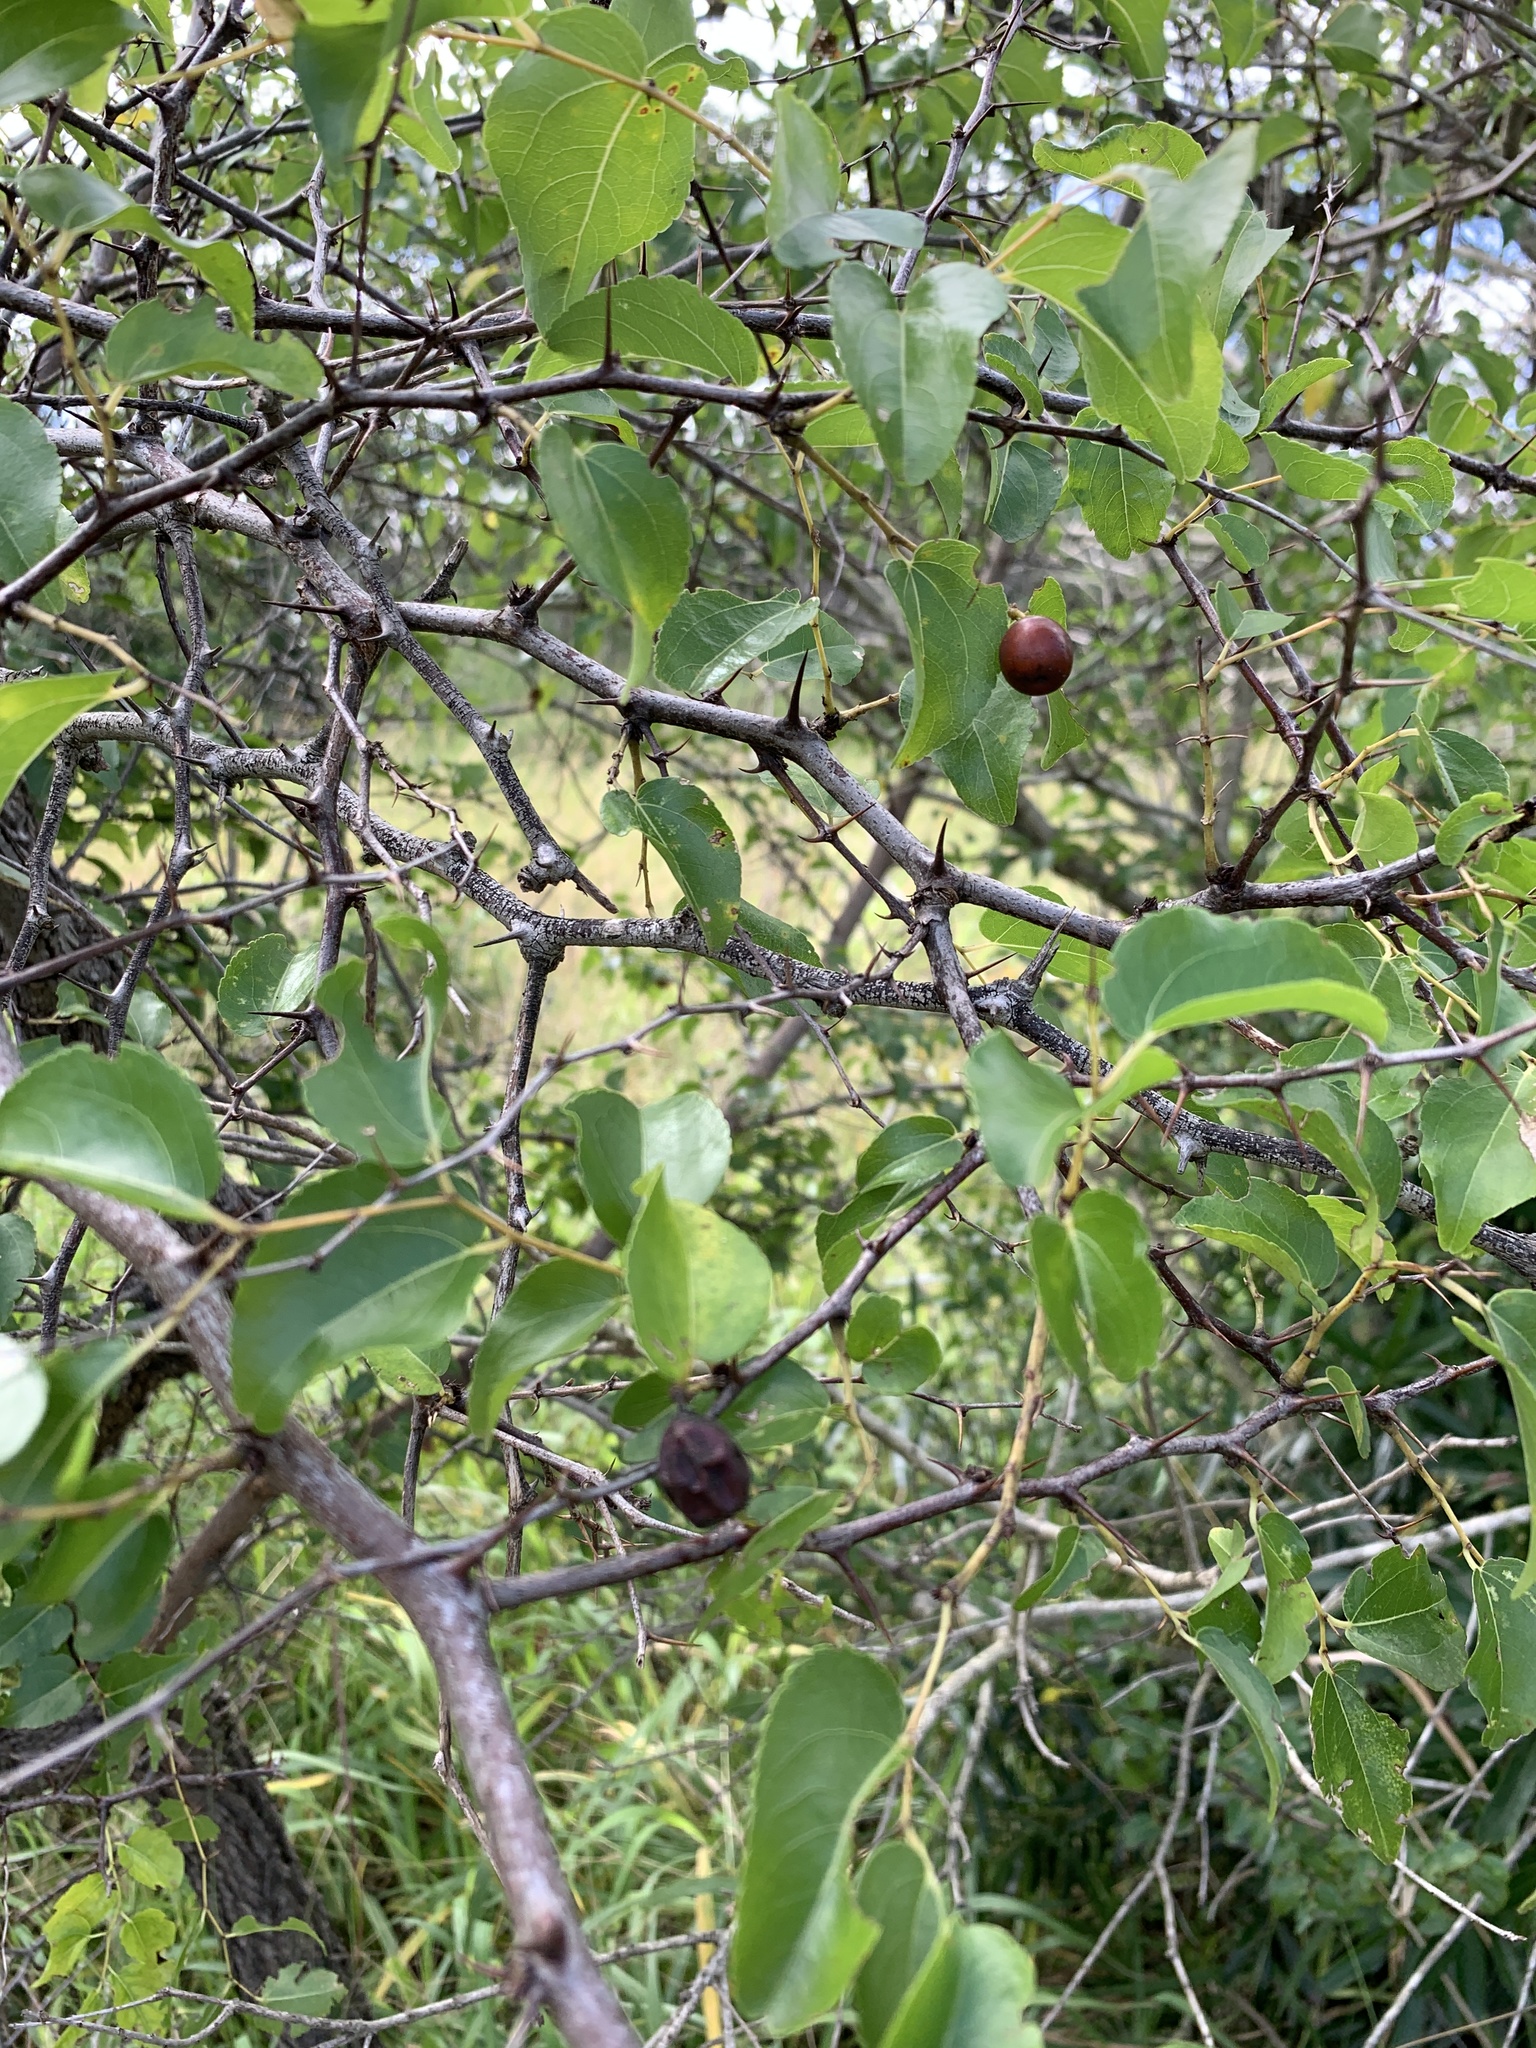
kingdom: Plantae
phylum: Tracheophyta
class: Magnoliopsida
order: Rosales
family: Rhamnaceae
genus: Ziziphus
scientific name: Ziziphus mucronata
